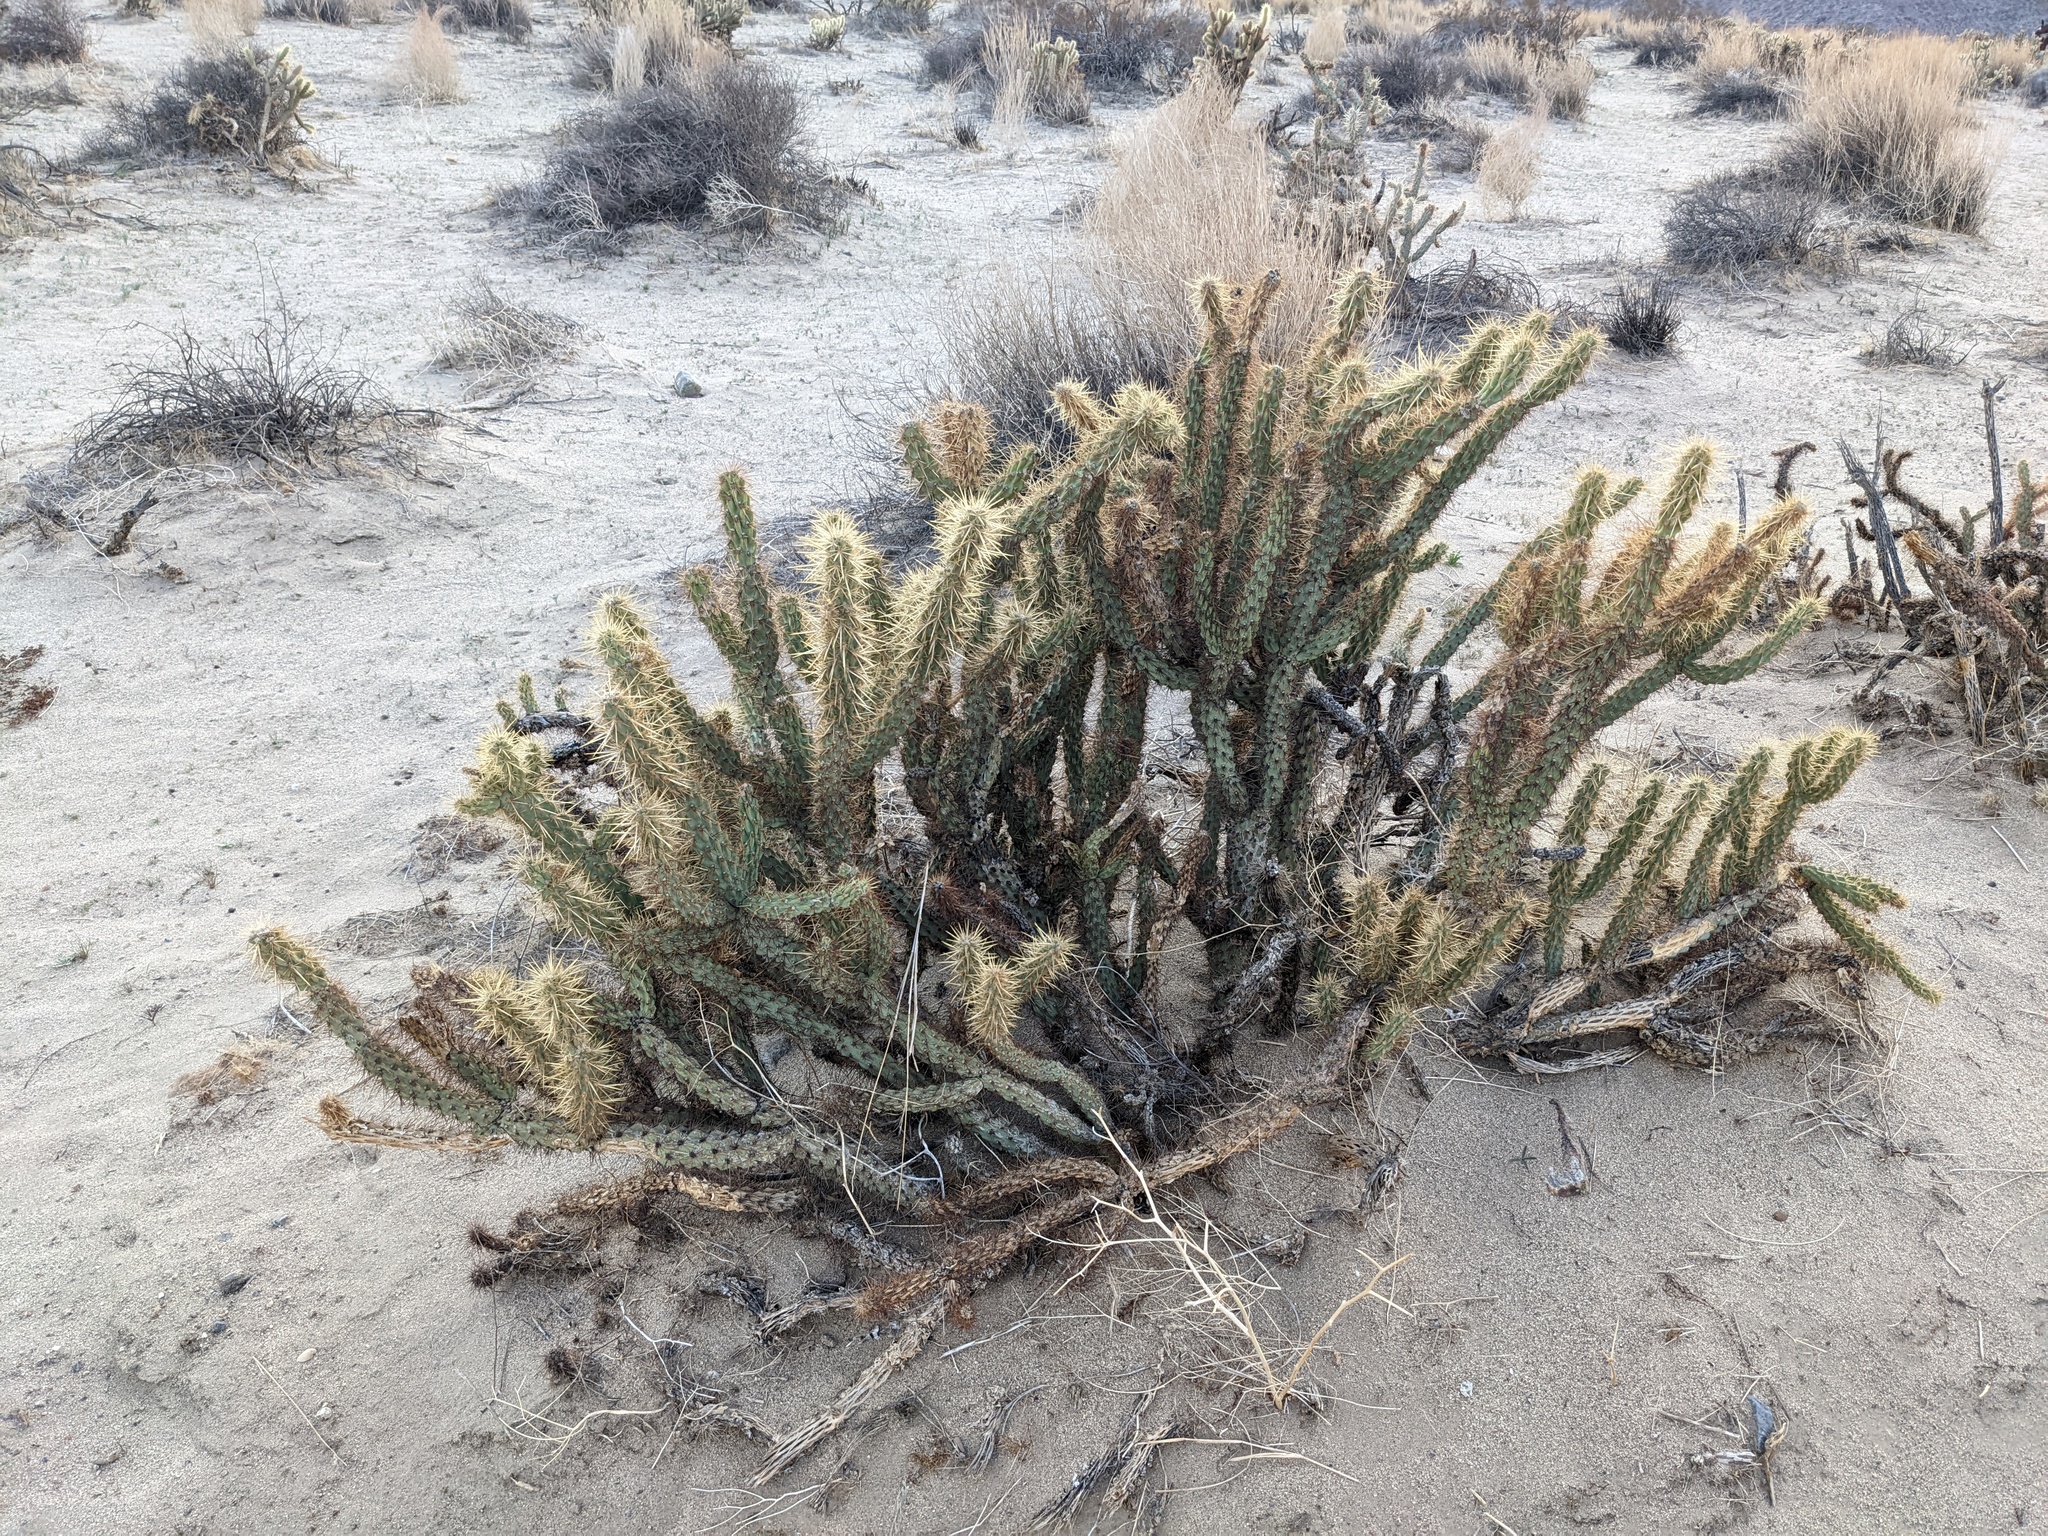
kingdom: Plantae
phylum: Tracheophyta
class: Magnoliopsida
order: Caryophyllales
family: Cactaceae
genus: Cylindropuntia
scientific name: Cylindropuntia ganderi
